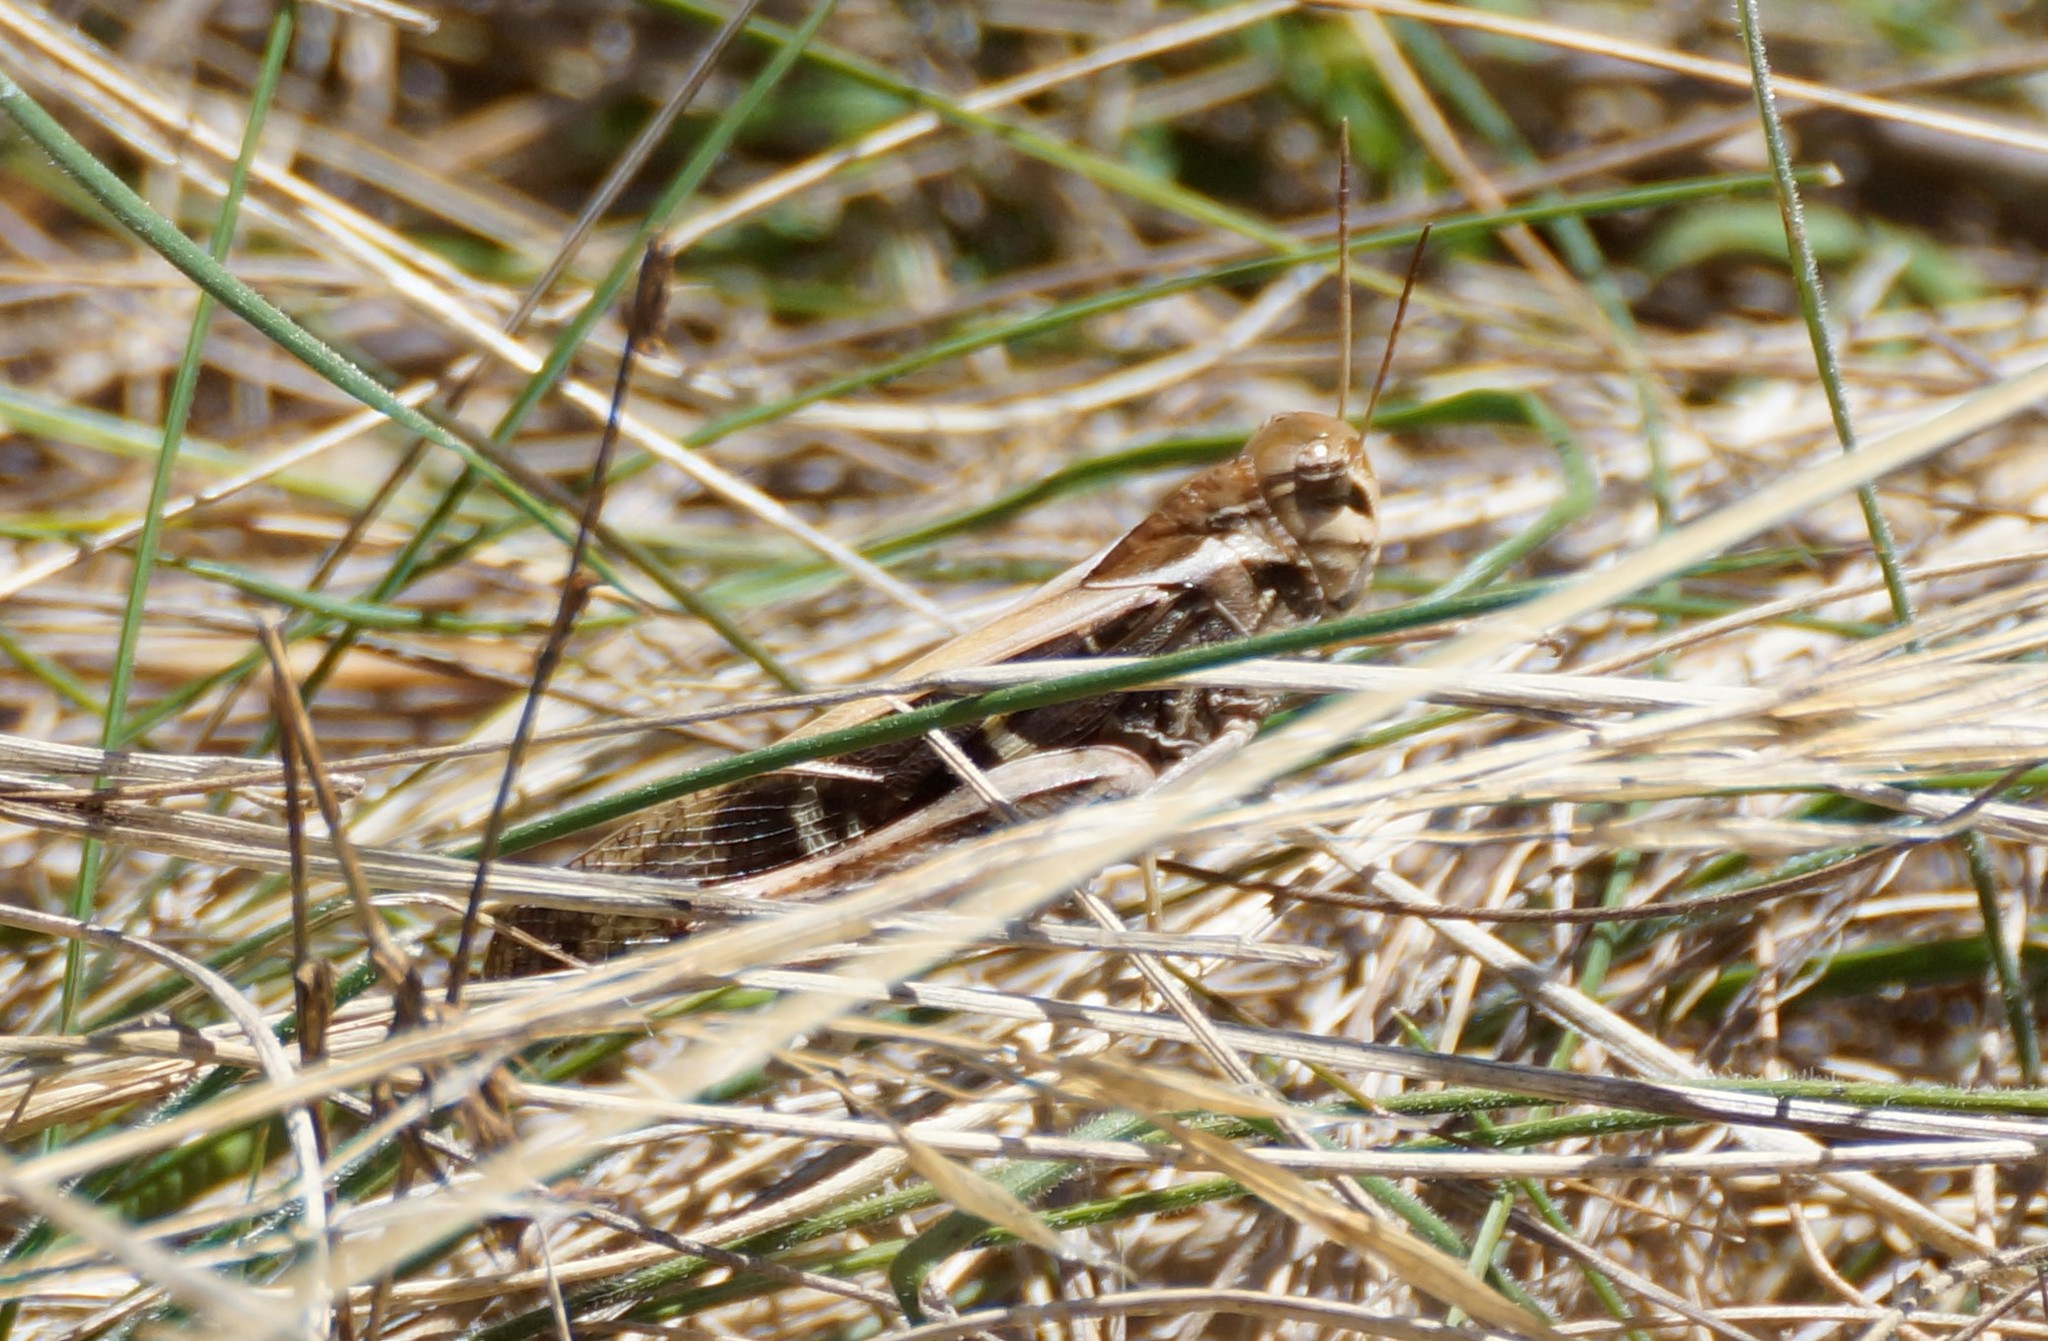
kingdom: Animalia
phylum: Arthropoda
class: Insecta
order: Orthoptera
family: Acrididae
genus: Gastrimargus
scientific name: Gastrimargus musicus
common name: Yellow-winged locust
